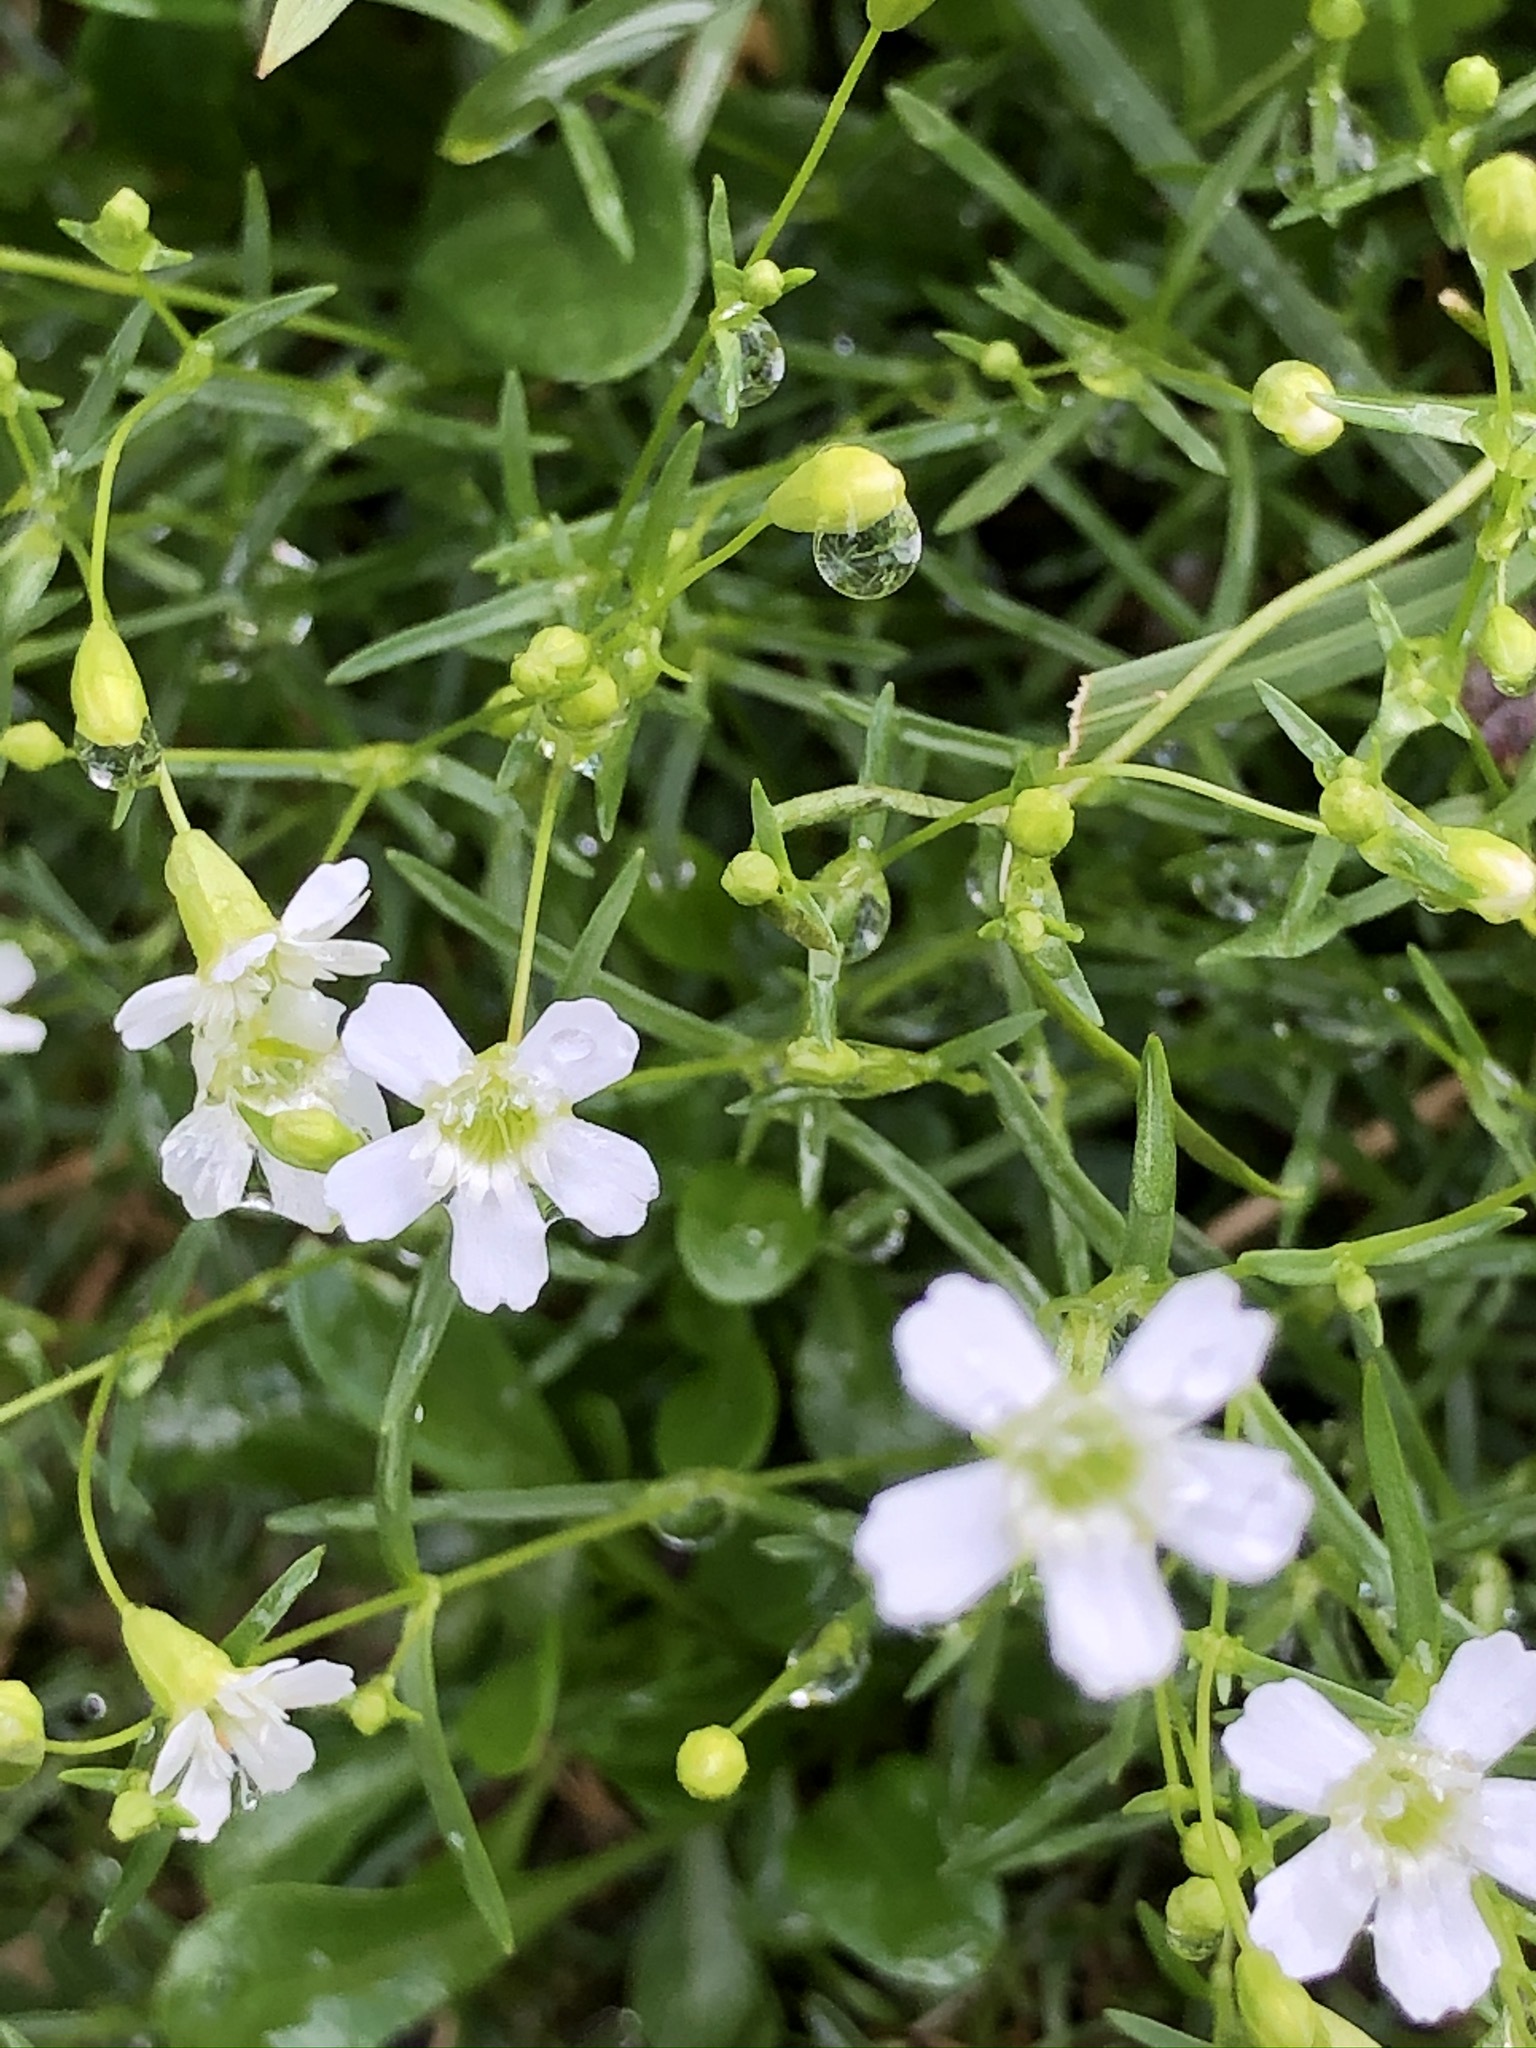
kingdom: Plantae
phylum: Tracheophyta
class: Magnoliopsida
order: Caryophyllales
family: Caryophyllaceae
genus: Heliosperma
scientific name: Heliosperma pusillum
